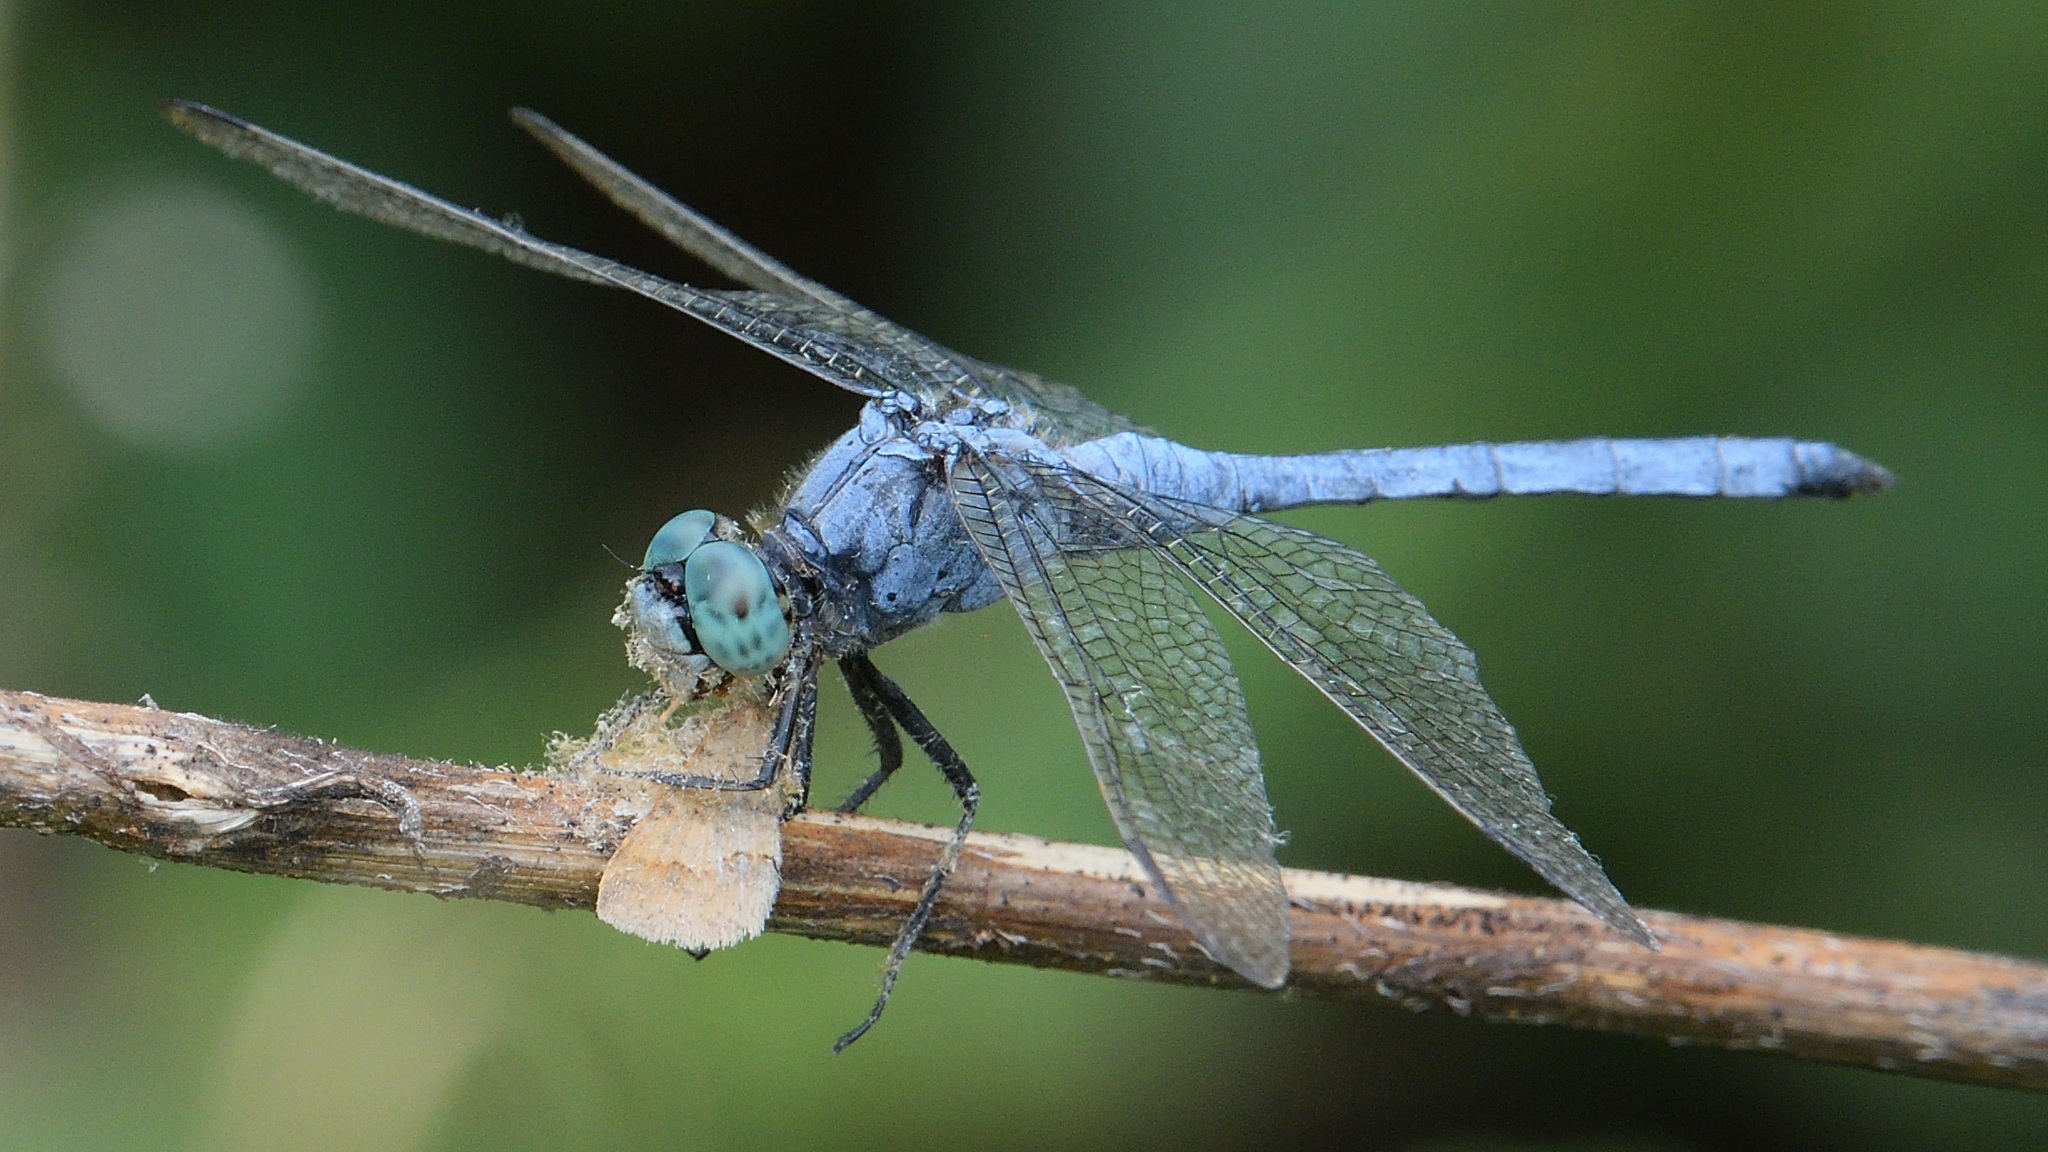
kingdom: Animalia
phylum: Arthropoda
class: Insecta
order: Odonata
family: Libellulidae
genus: Orthetrum
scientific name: Orthetrum luzonicum
